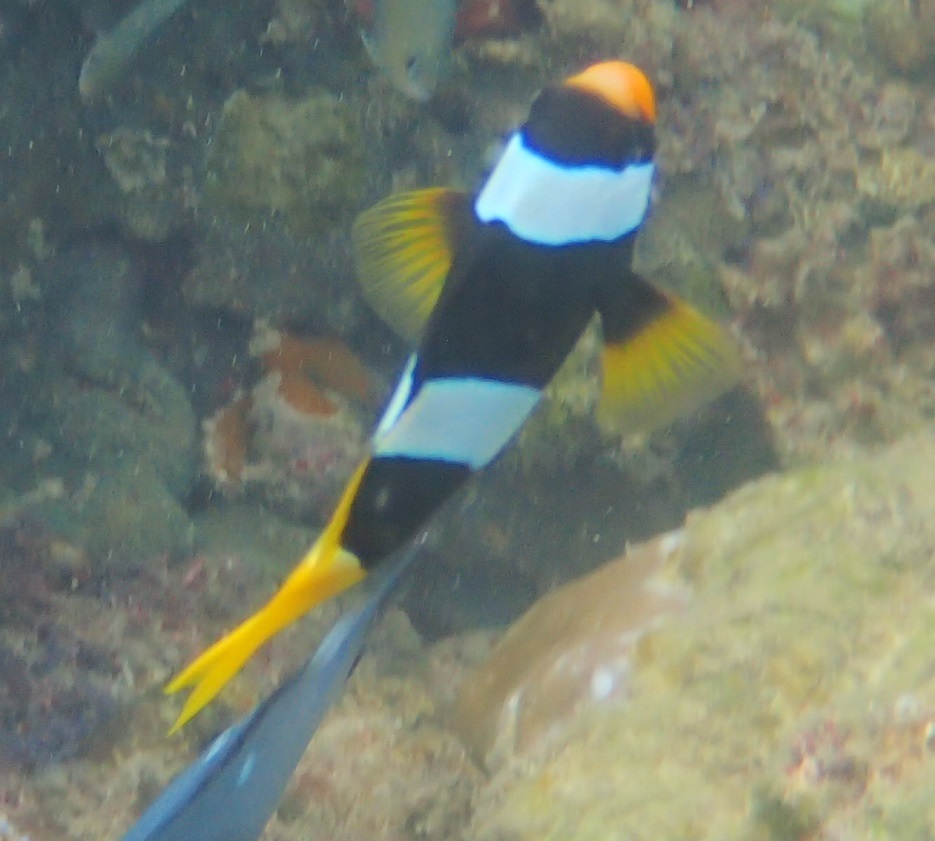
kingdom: Animalia
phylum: Chordata
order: Perciformes
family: Pomacentridae
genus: Amphiprion
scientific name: Amphiprion clarkii
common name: Clark's anemonefish
